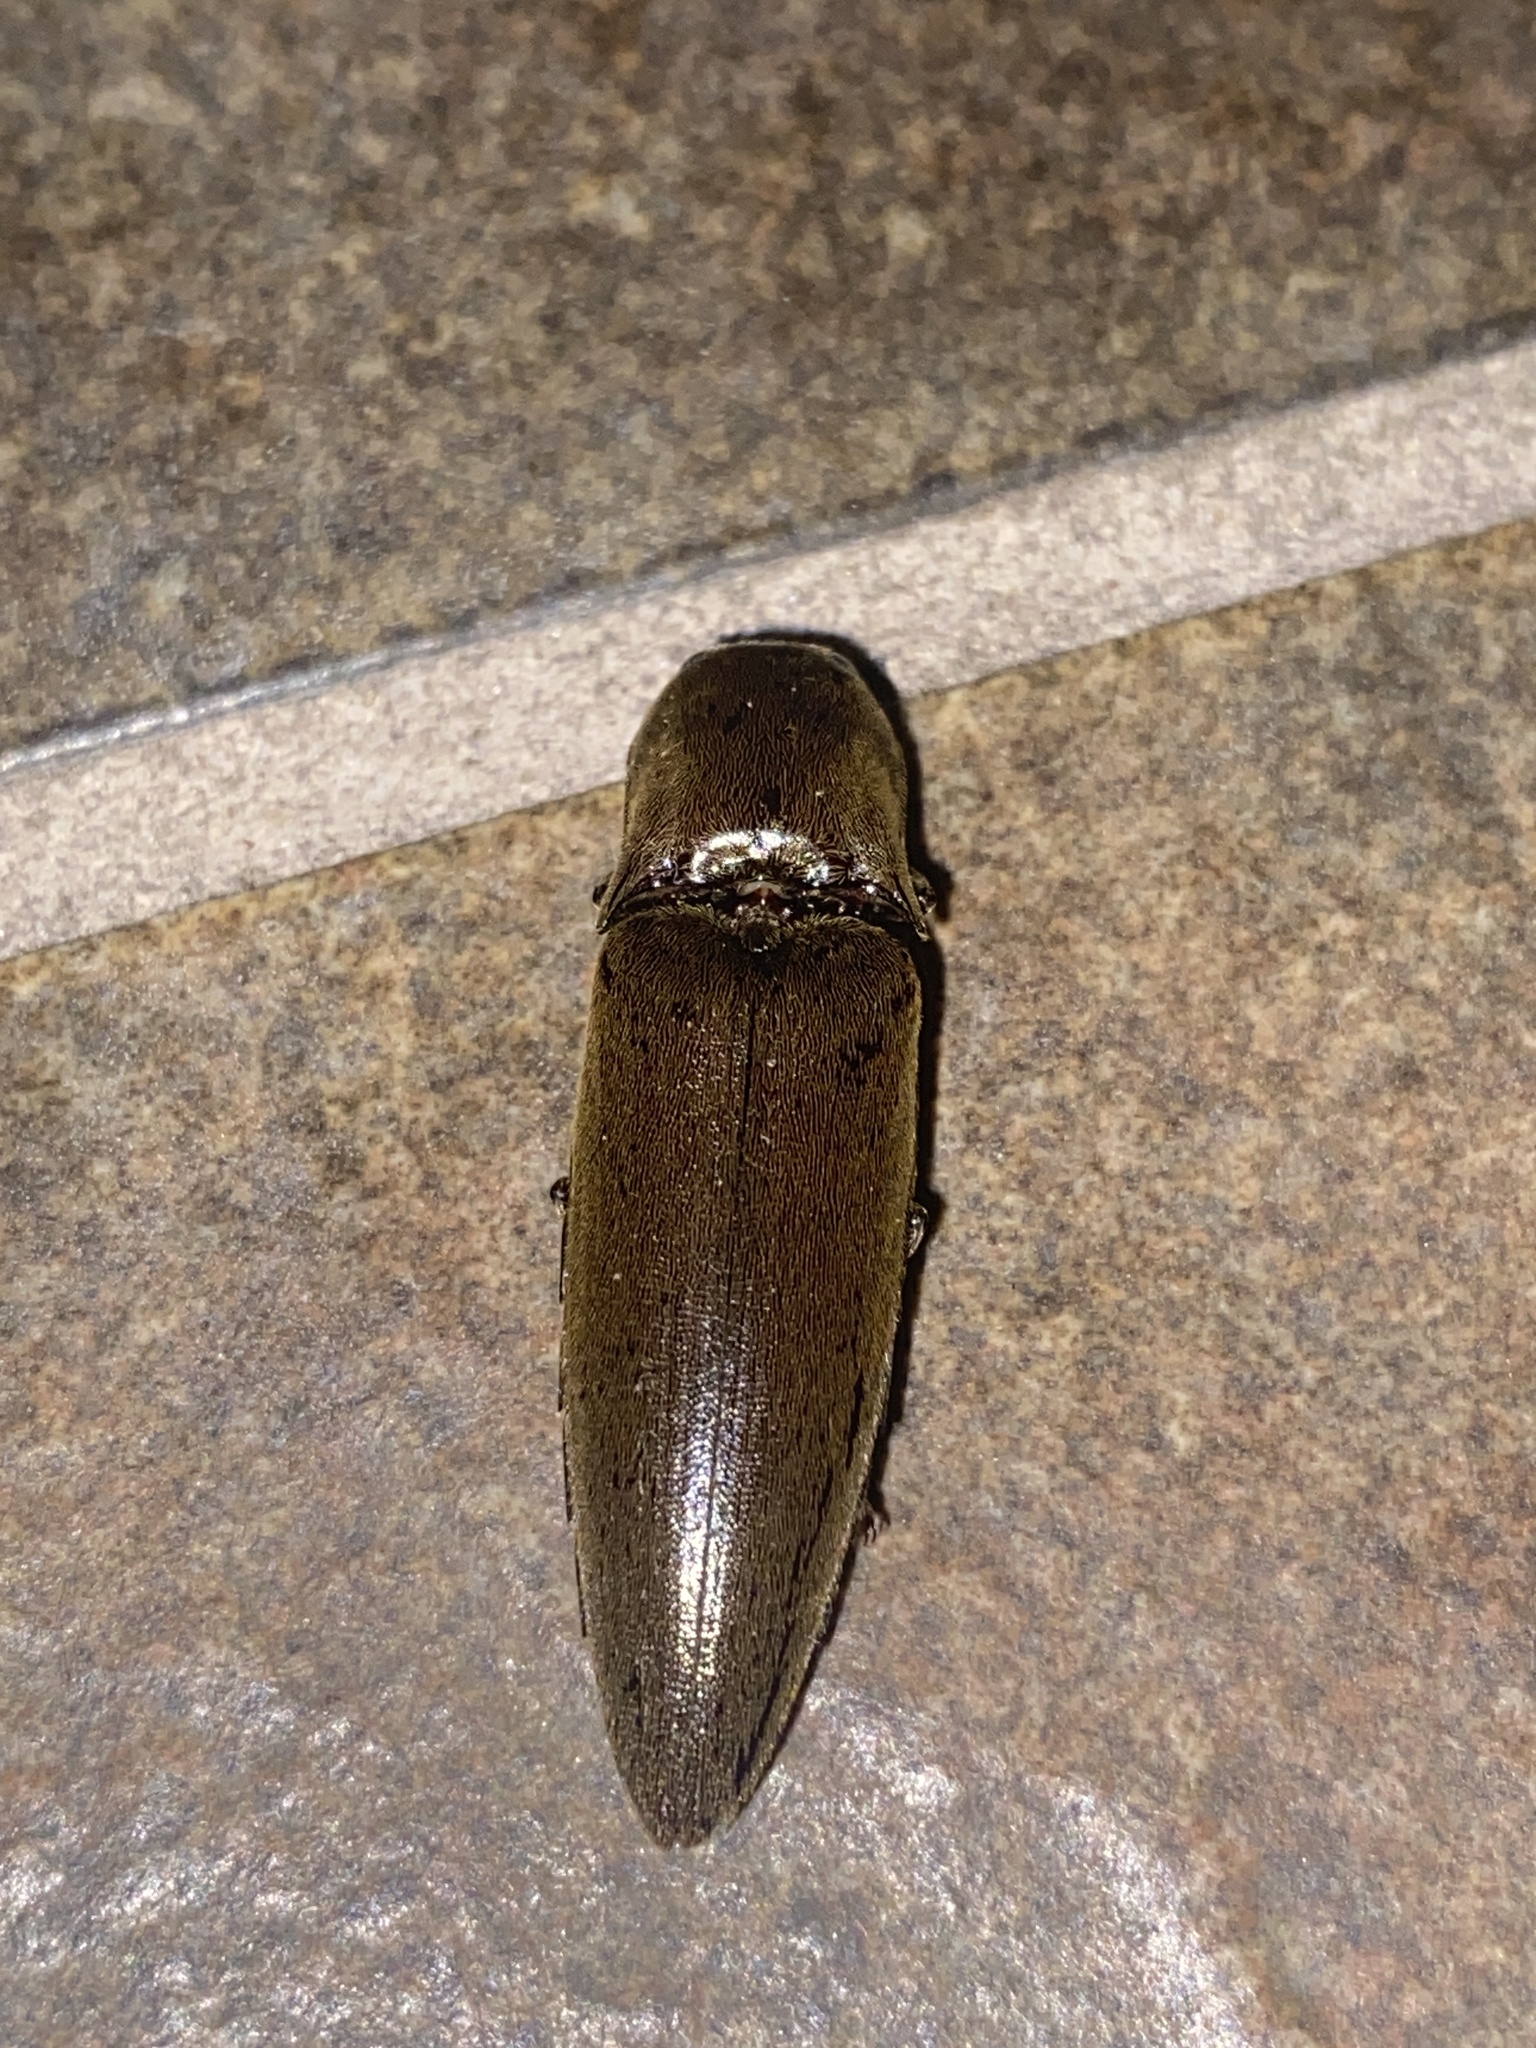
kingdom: Animalia
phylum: Arthropoda
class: Insecta
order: Coleoptera
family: Elateridae
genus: Orthostethus
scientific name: Orthostethus infuscatus
